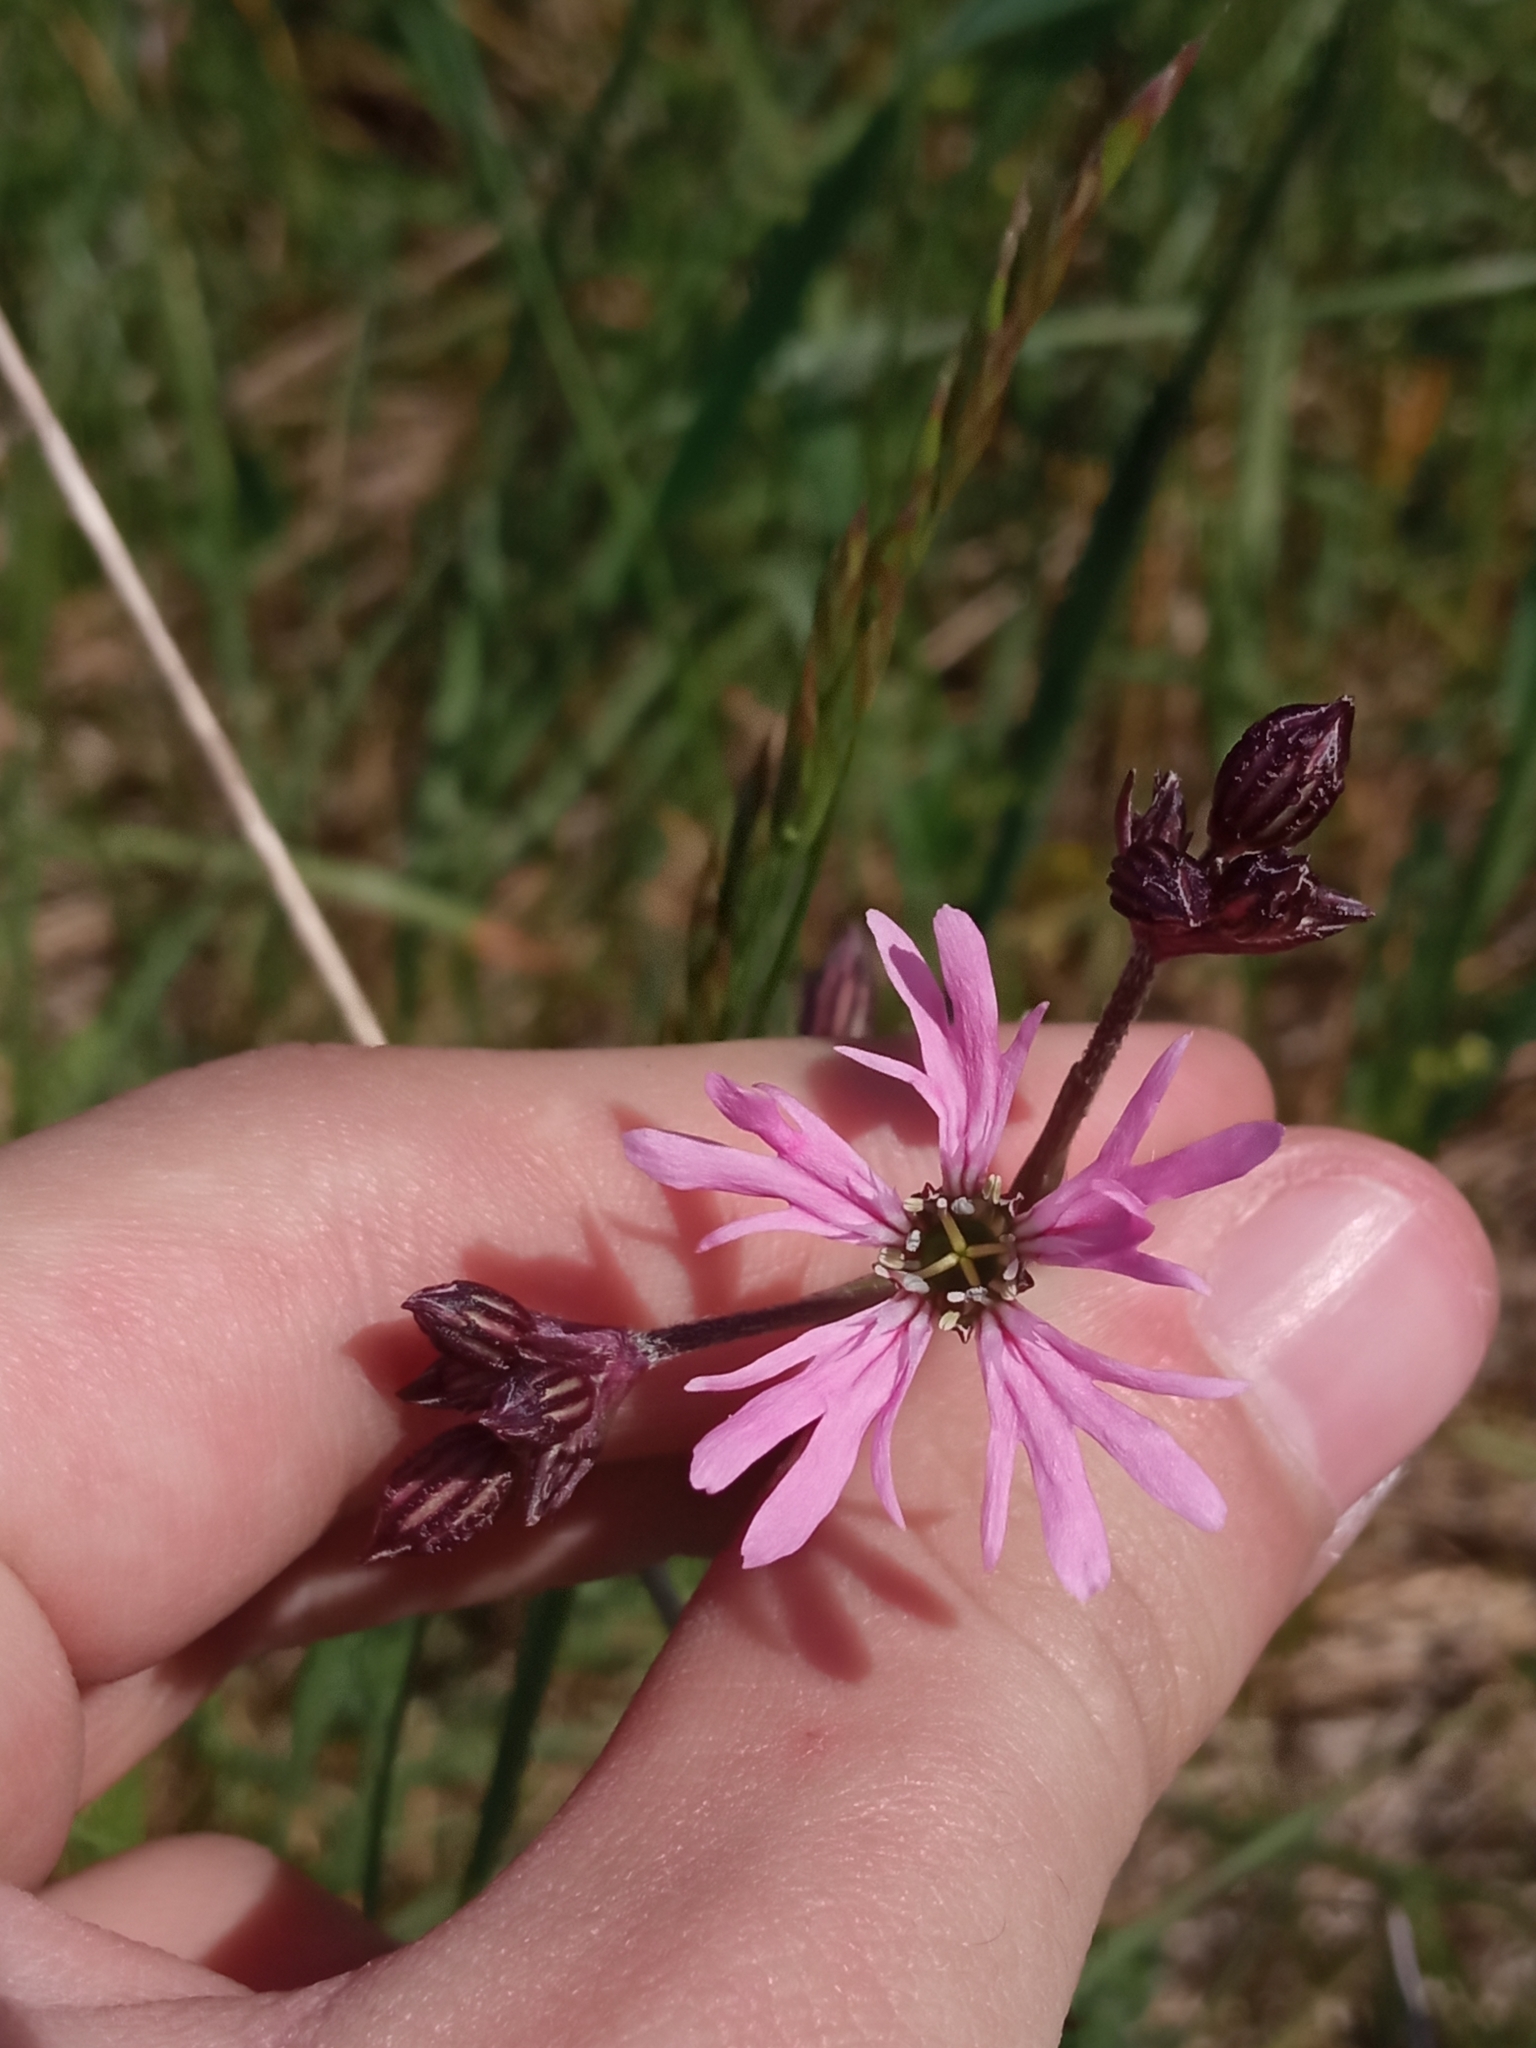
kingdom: Plantae
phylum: Tracheophyta
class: Magnoliopsida
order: Caryophyllales
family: Caryophyllaceae
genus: Silene
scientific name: Silene flos-cuculi
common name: Ragged-robin
